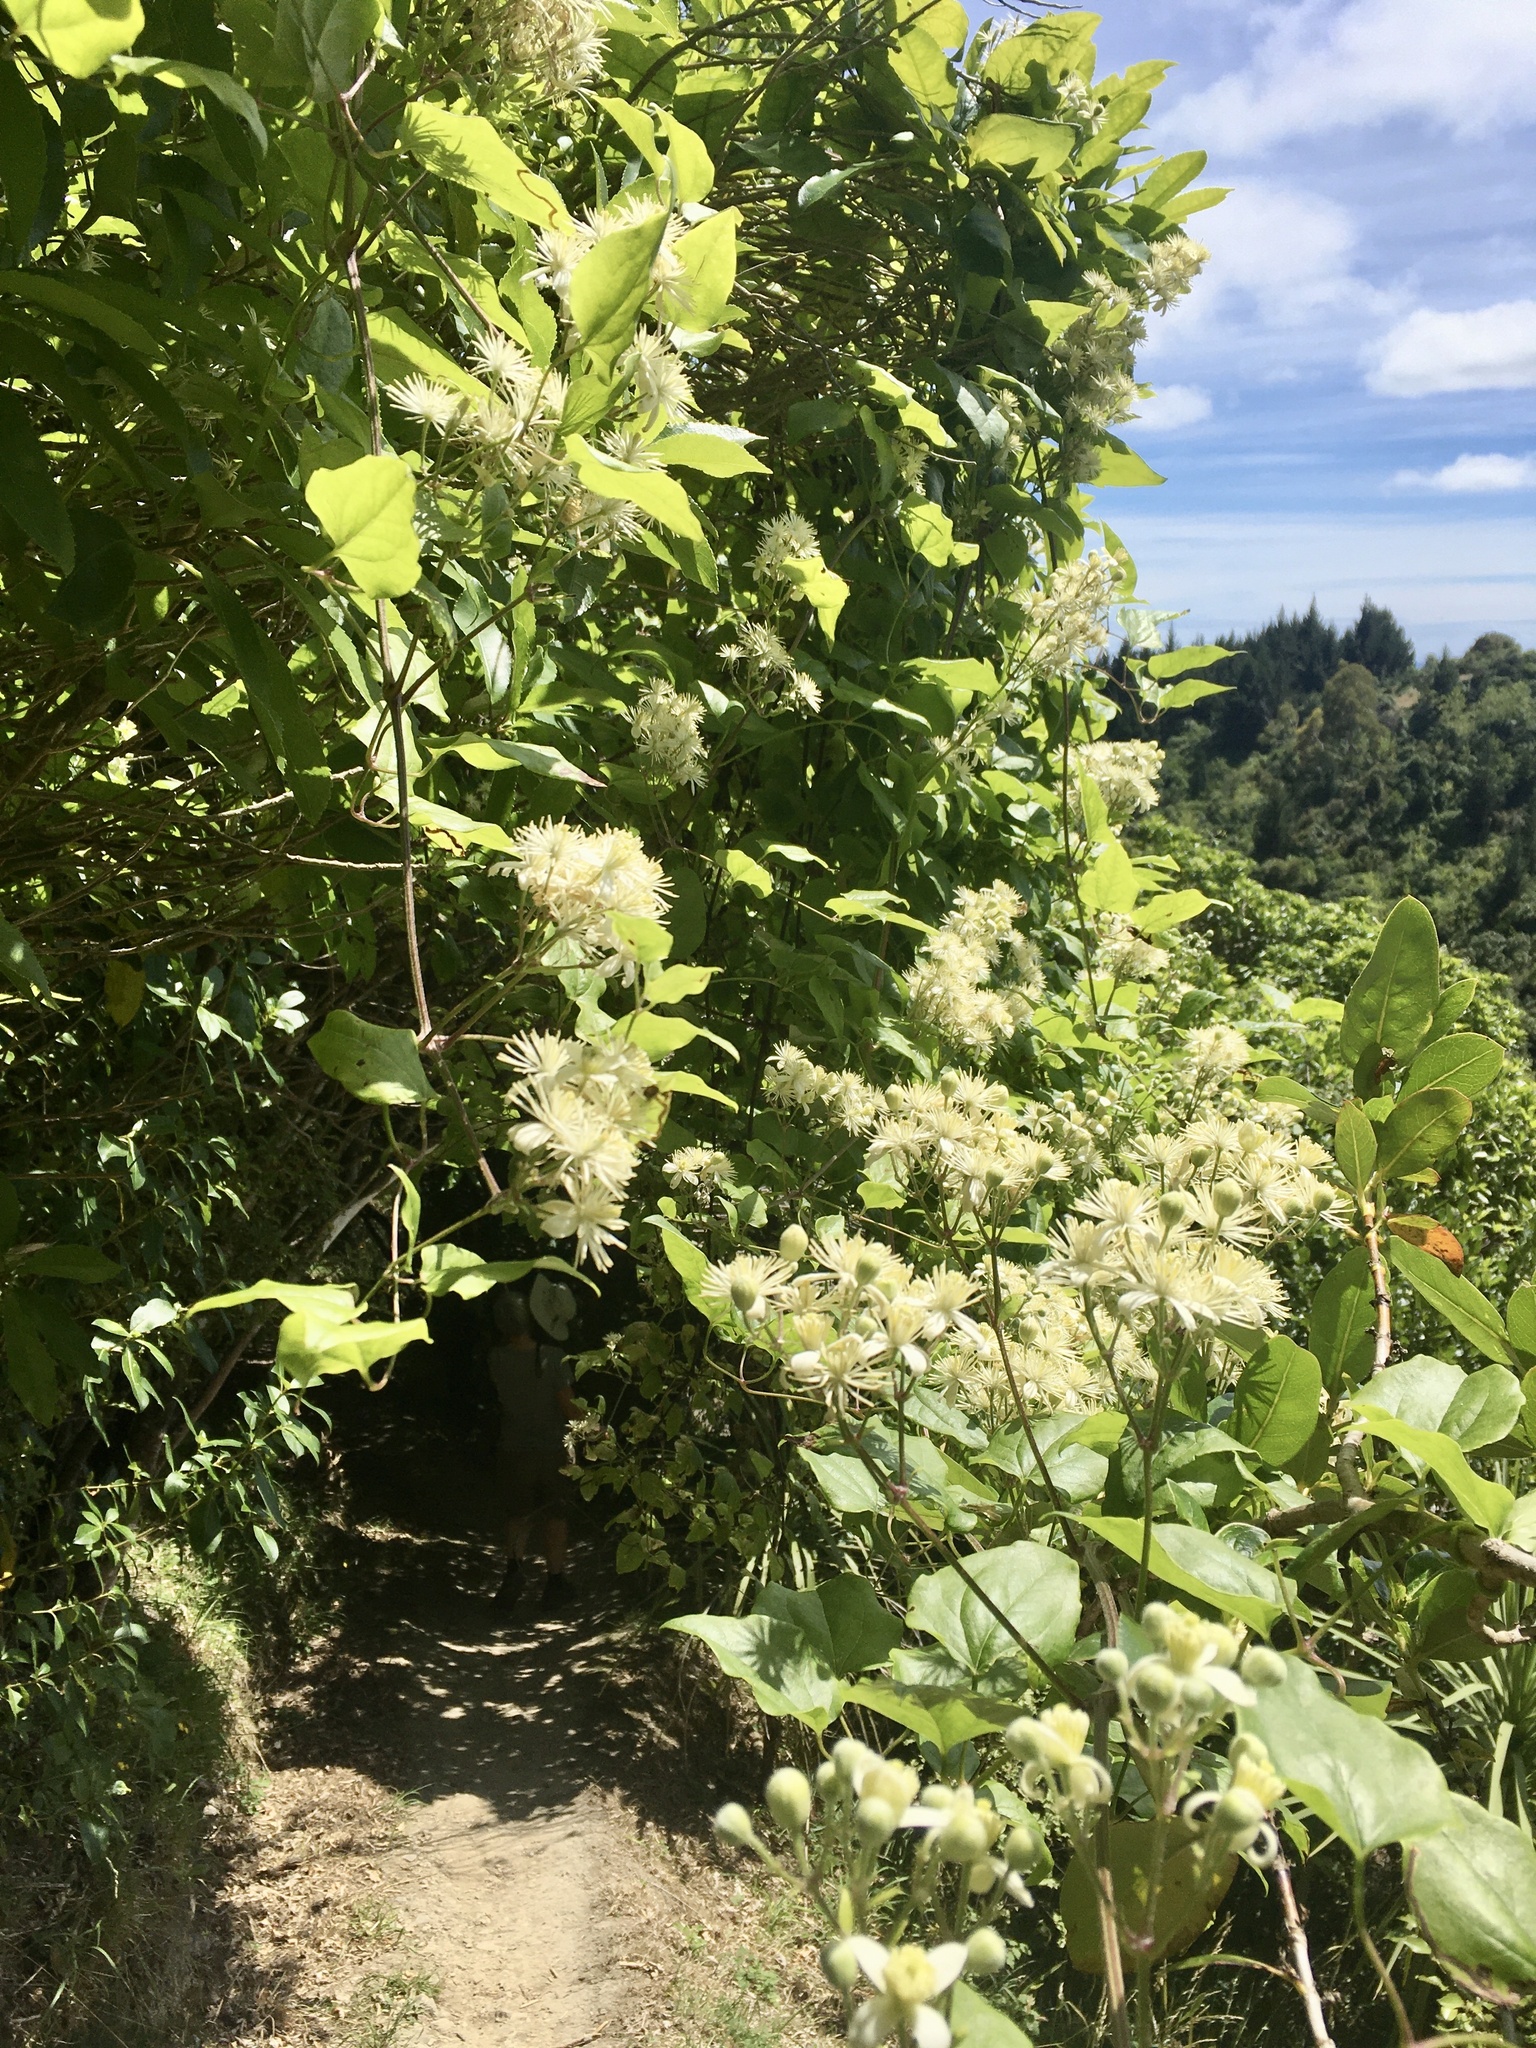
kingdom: Plantae
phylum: Tracheophyta
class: Magnoliopsida
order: Ranunculales
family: Ranunculaceae
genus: Clematis
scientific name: Clematis vitalba
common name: Evergreen clematis
